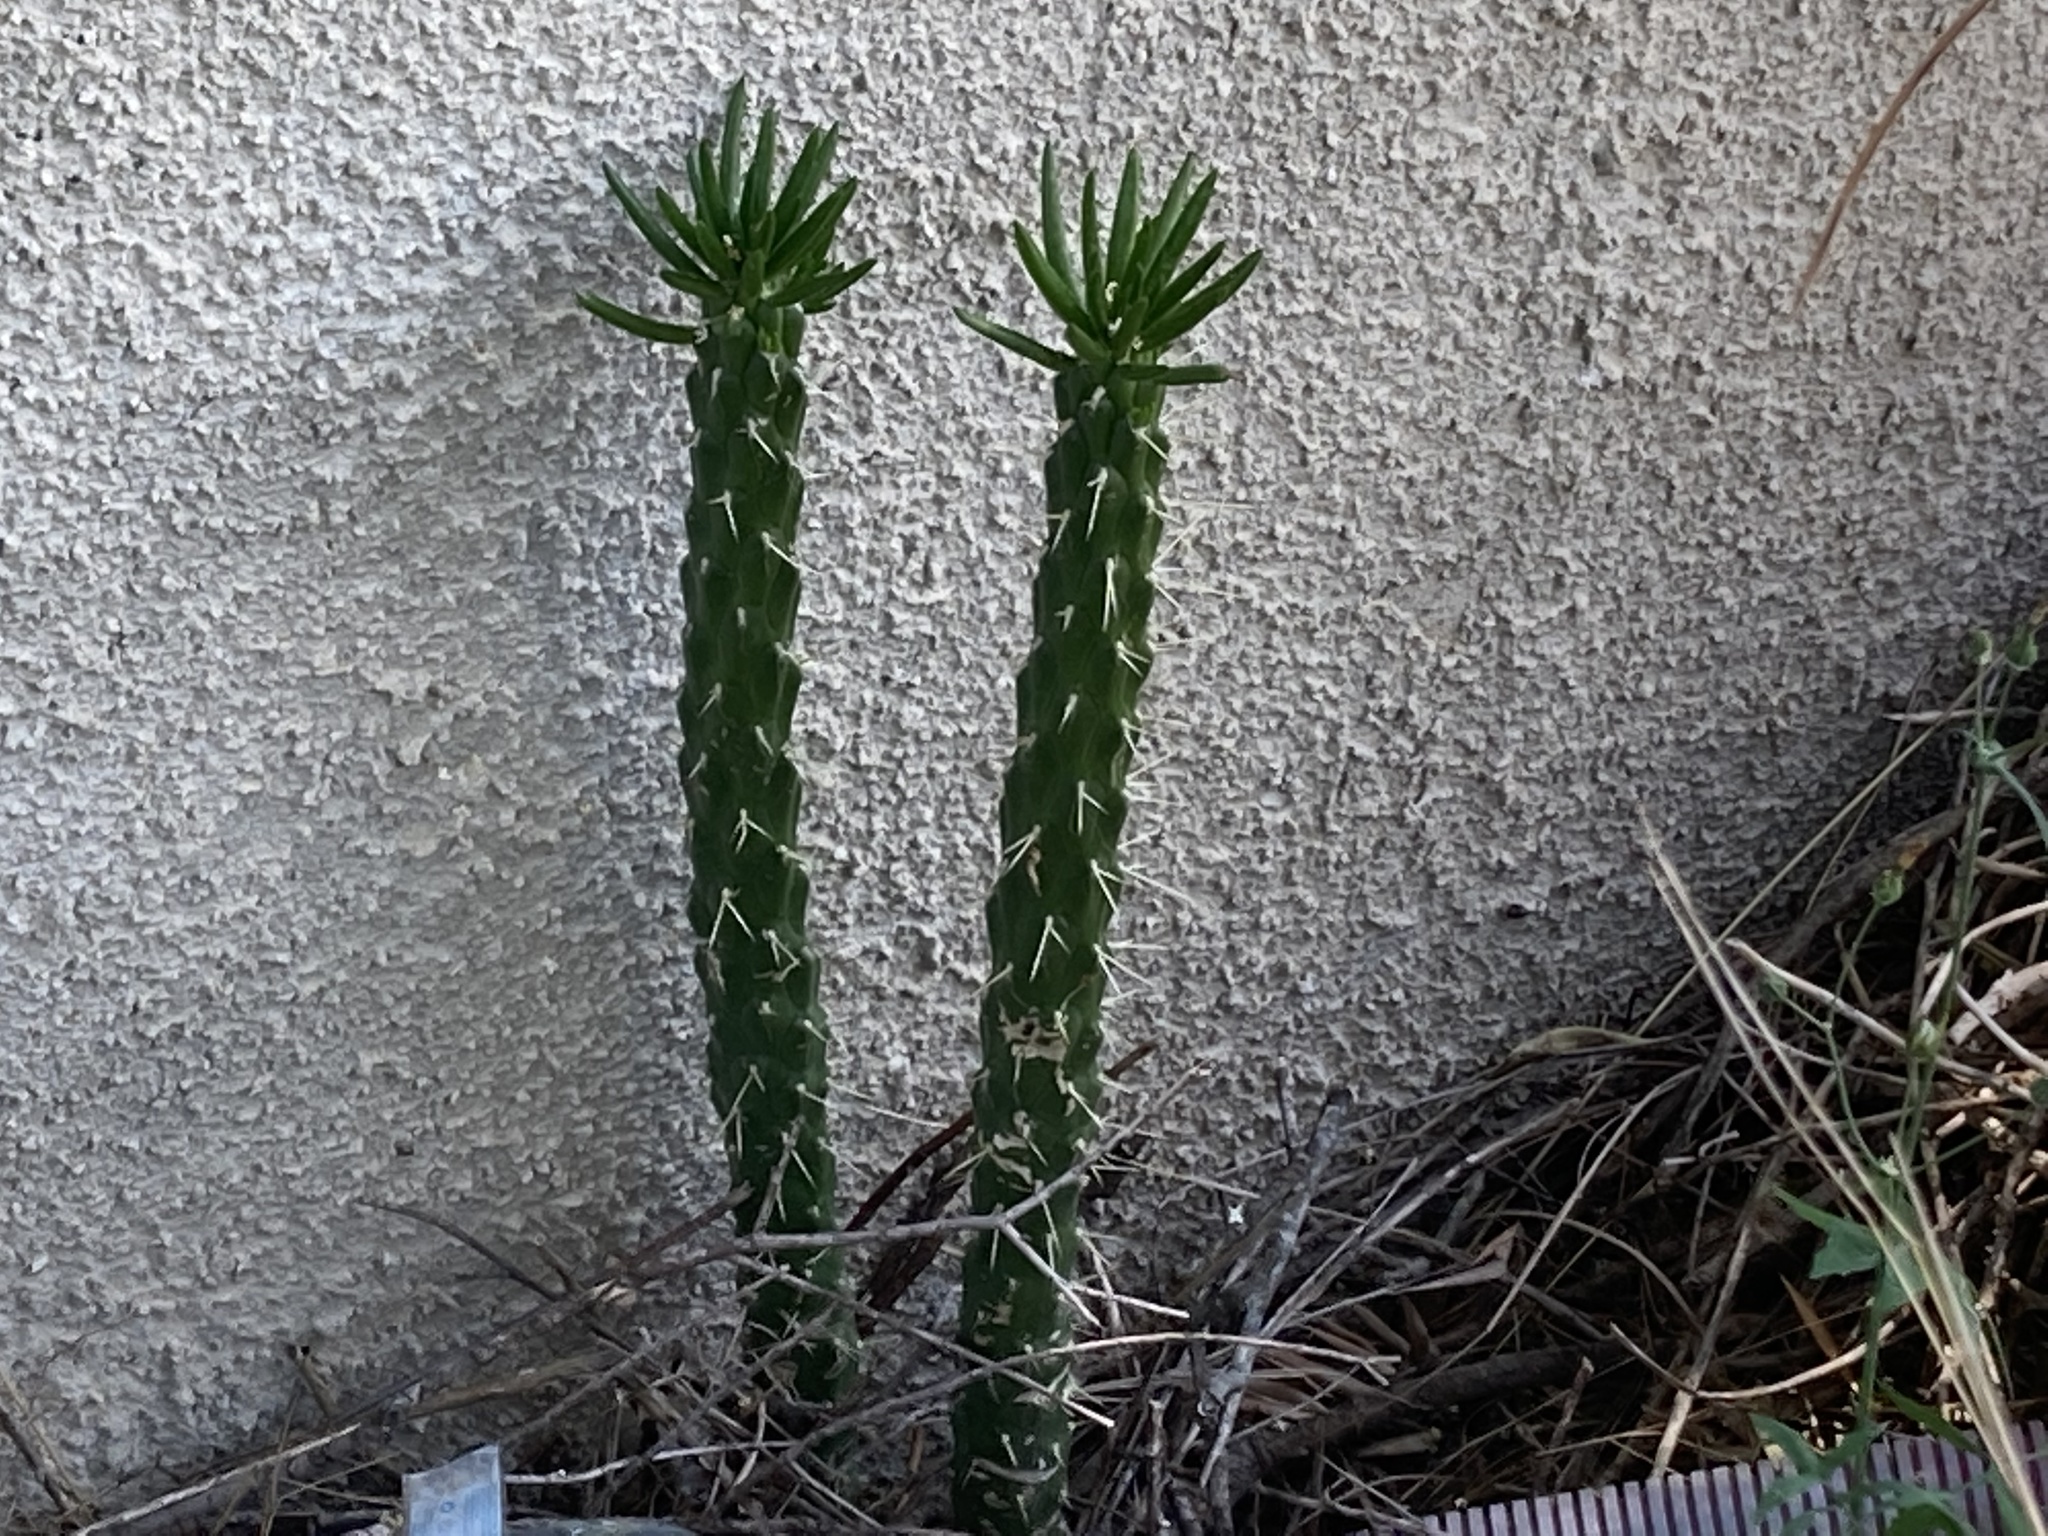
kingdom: Plantae
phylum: Tracheophyta
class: Magnoliopsida
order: Caryophyllales
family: Cactaceae
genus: Austrocylindropuntia
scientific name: Austrocylindropuntia subulata
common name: Eve's needle cactus
